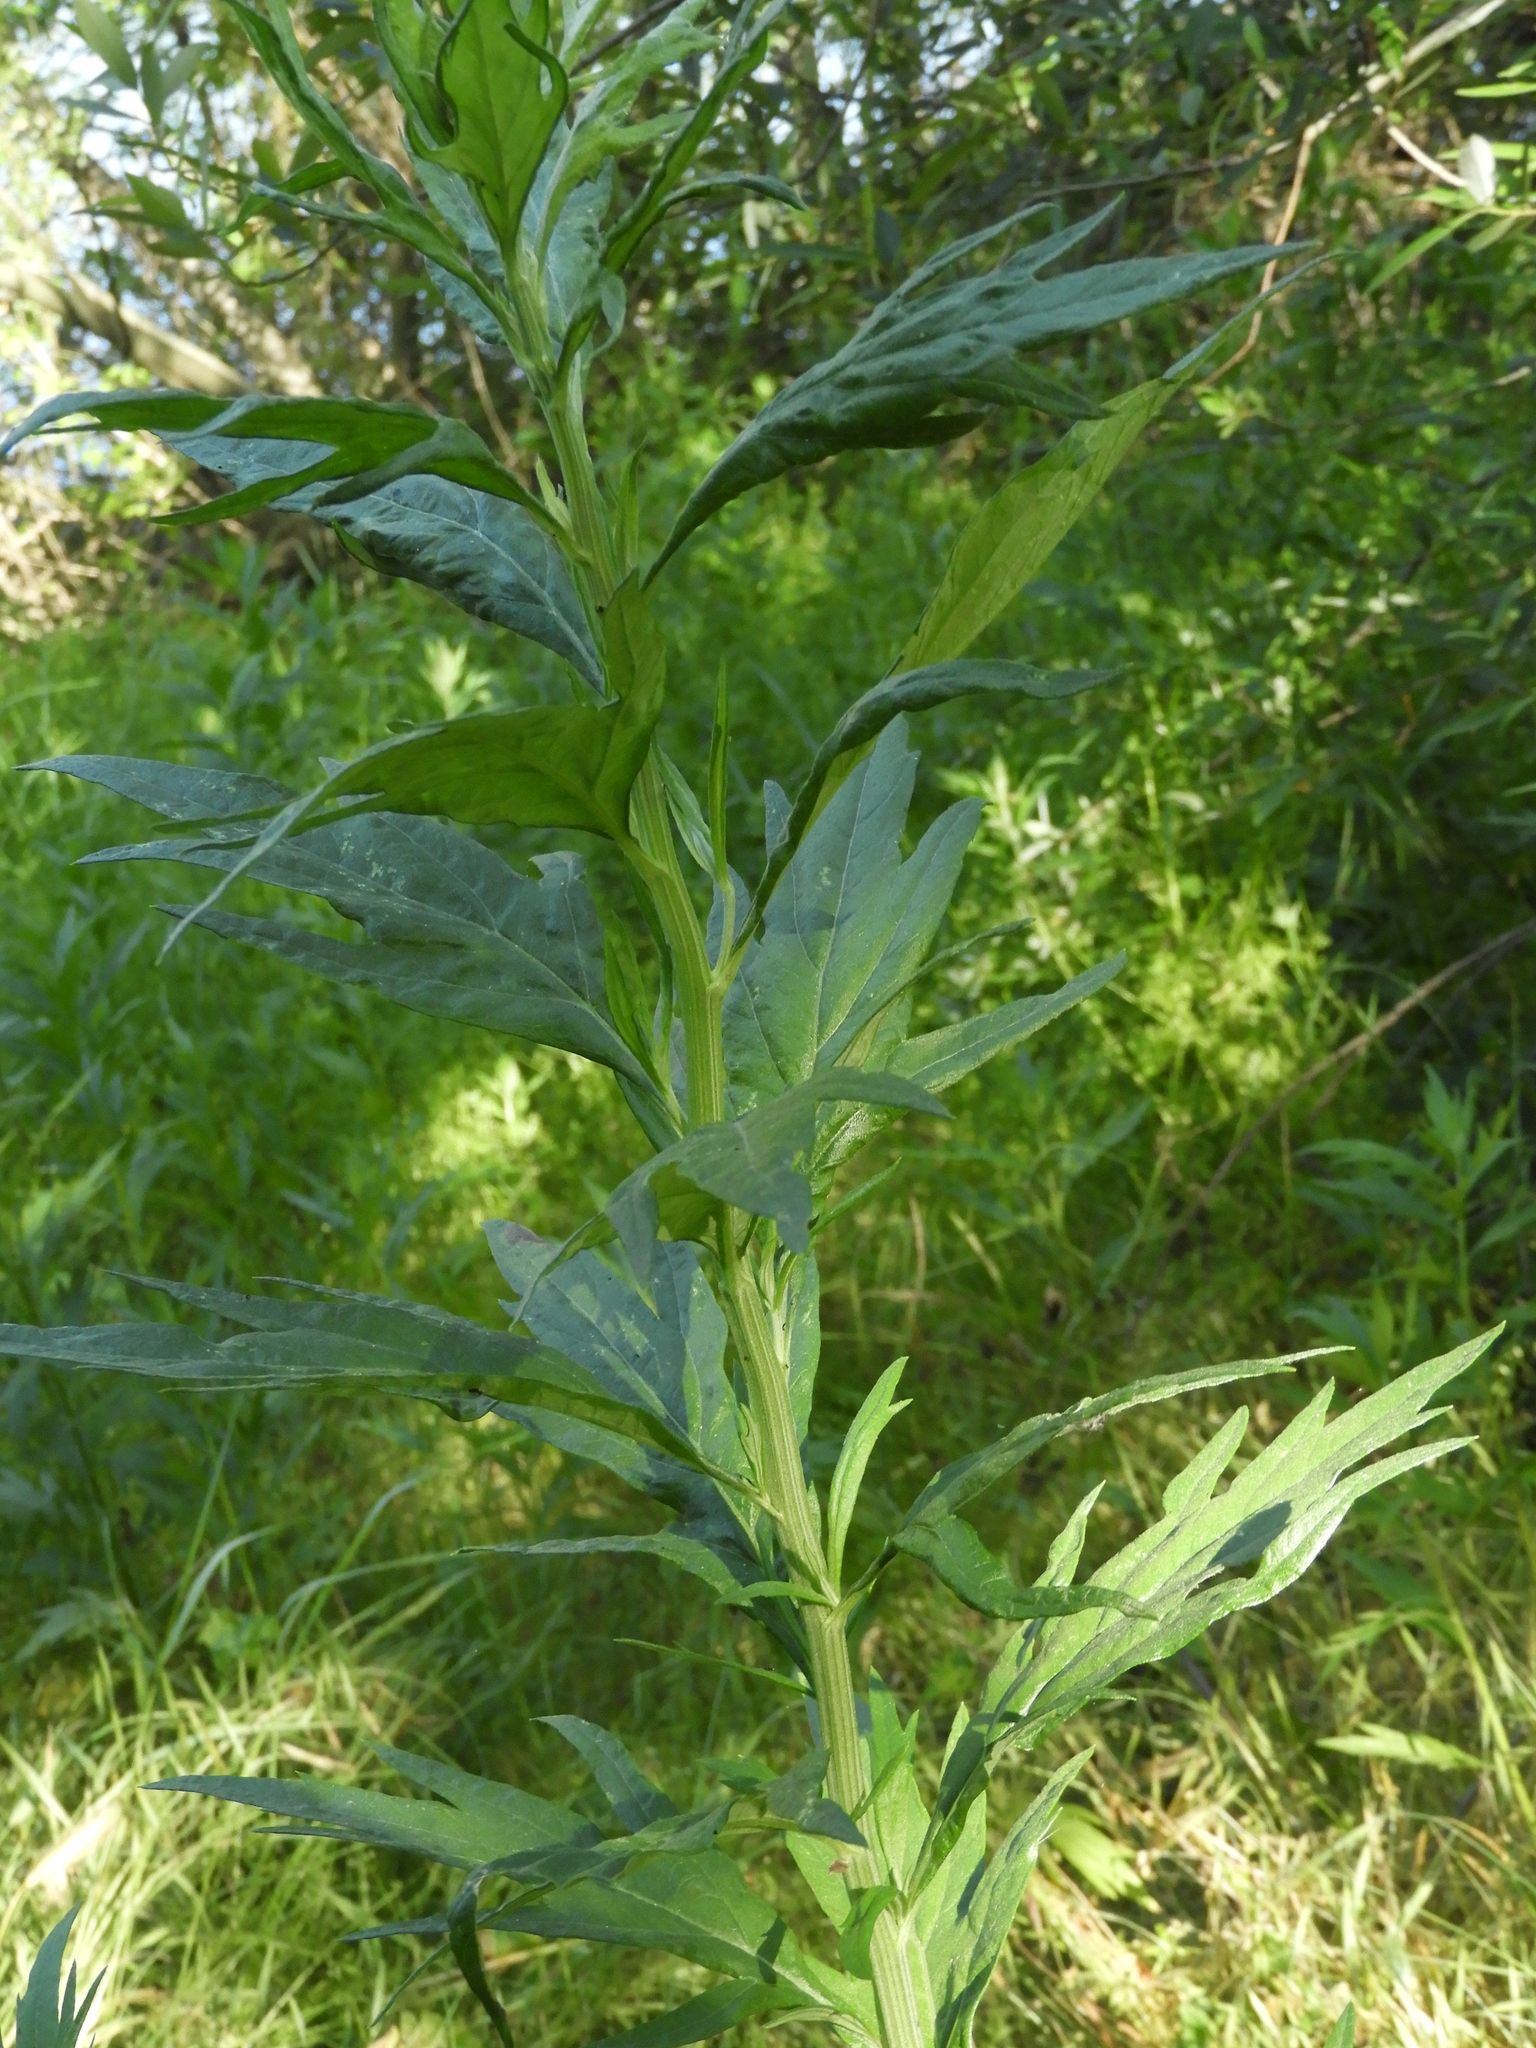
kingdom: Plantae
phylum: Tracheophyta
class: Magnoliopsida
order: Asterales
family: Asteraceae
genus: Artemisia
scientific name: Artemisia douglasiana
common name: Northwest mugwort
